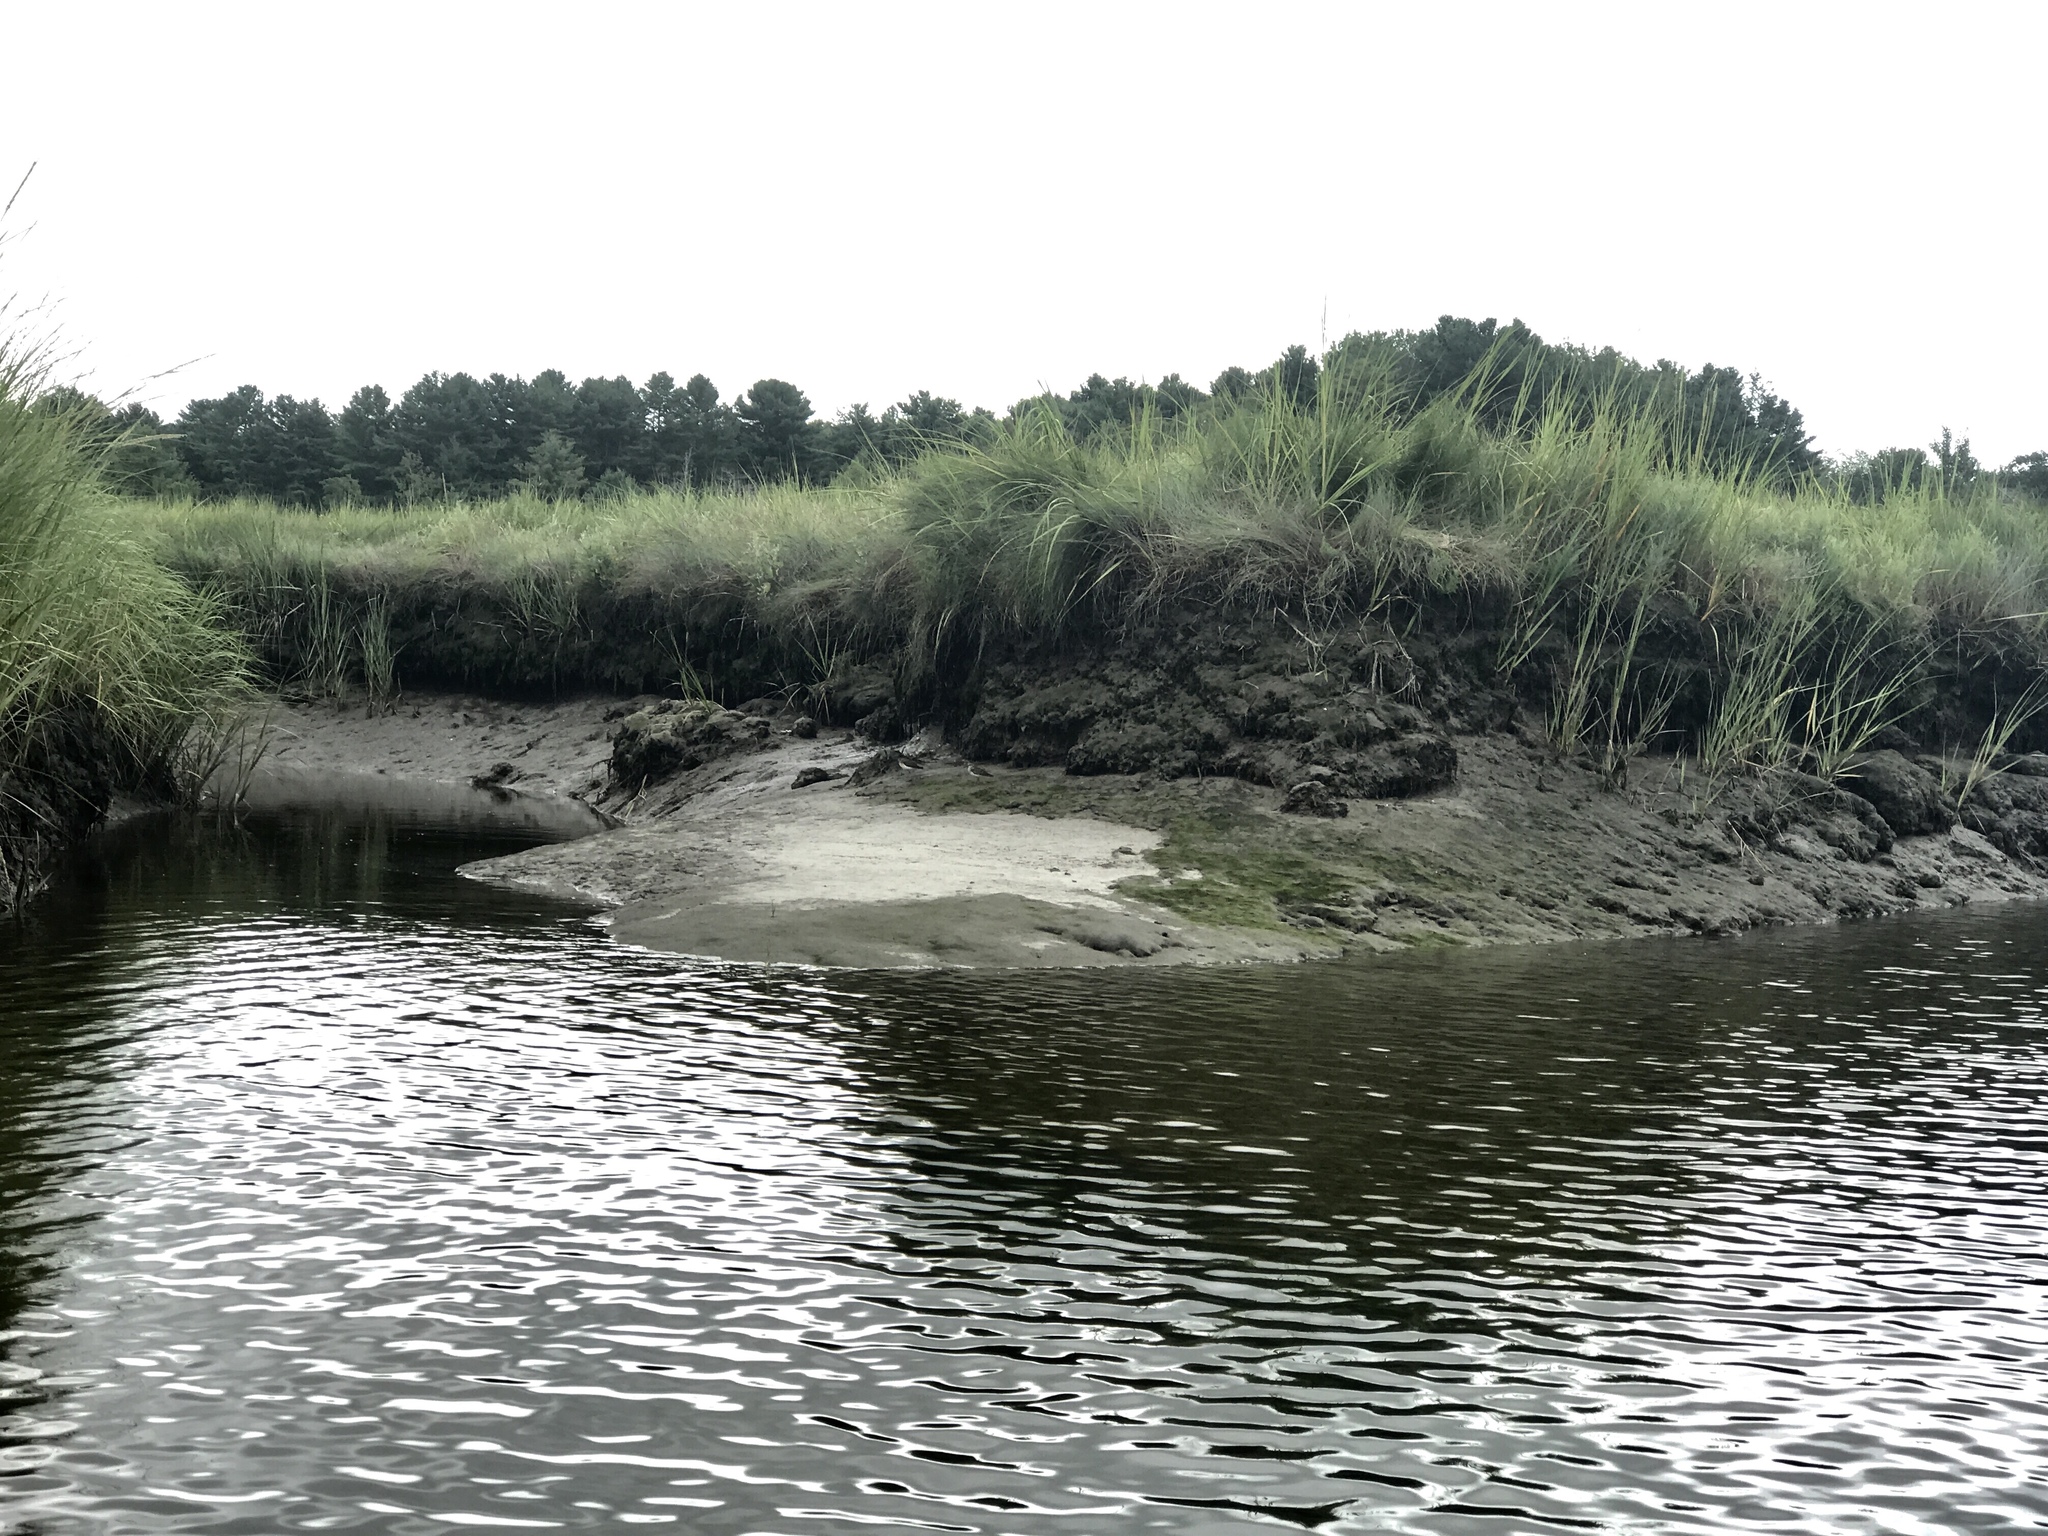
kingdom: Animalia
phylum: Chordata
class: Aves
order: Charadriiformes
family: Scolopacidae
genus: Calidris
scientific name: Calidris pusilla
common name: Semipalmated sandpiper
